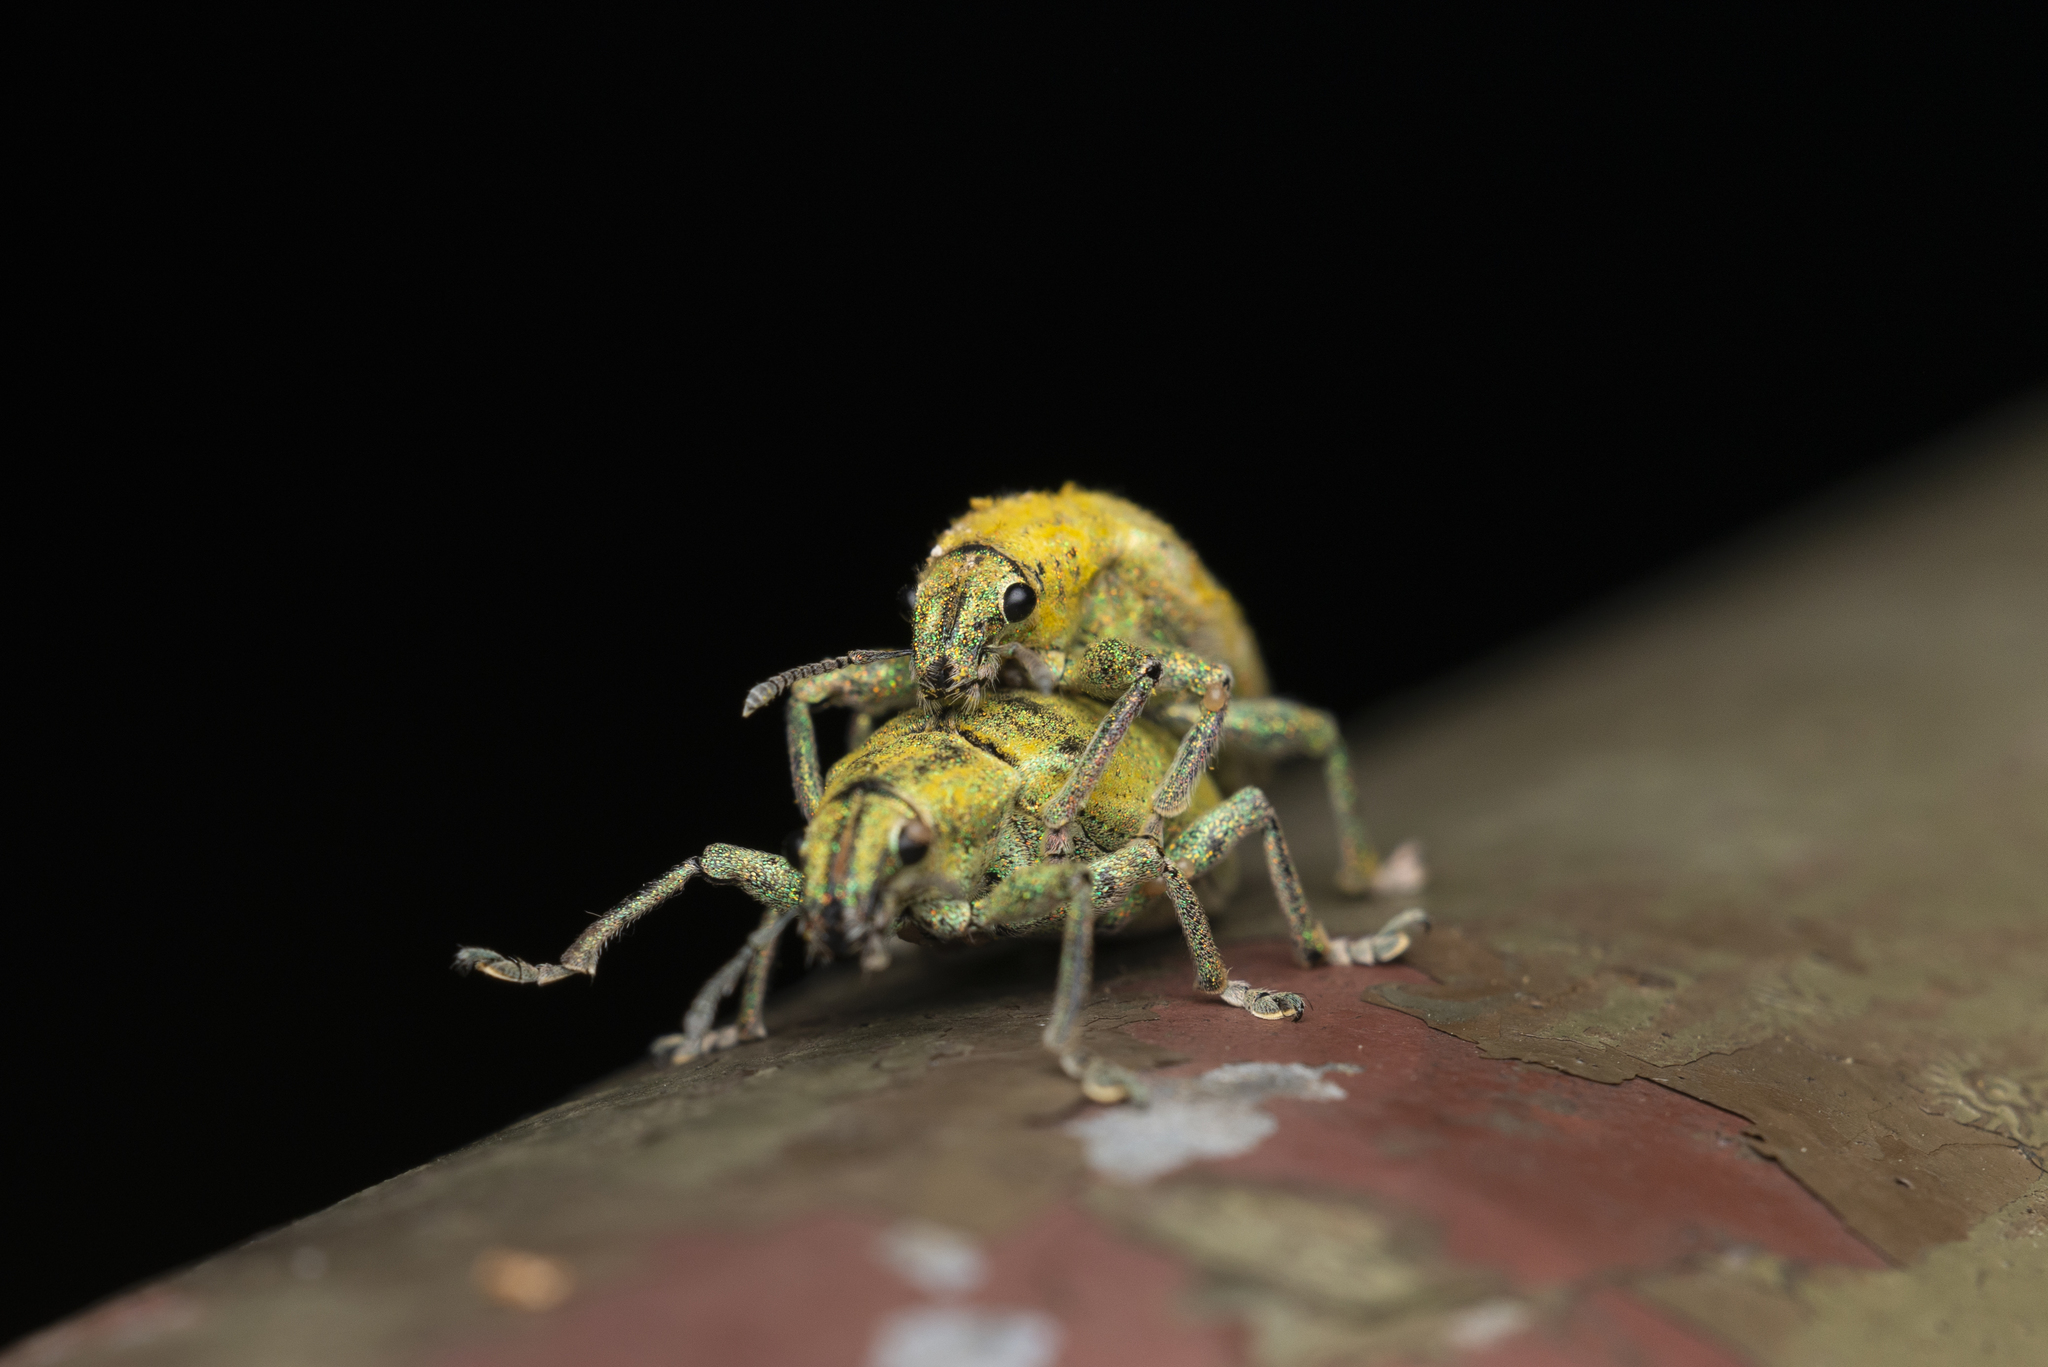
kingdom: Animalia
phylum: Arthropoda
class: Insecta
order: Coleoptera
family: Curculionidae
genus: Hypomeces
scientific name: Hypomeces pulviger
